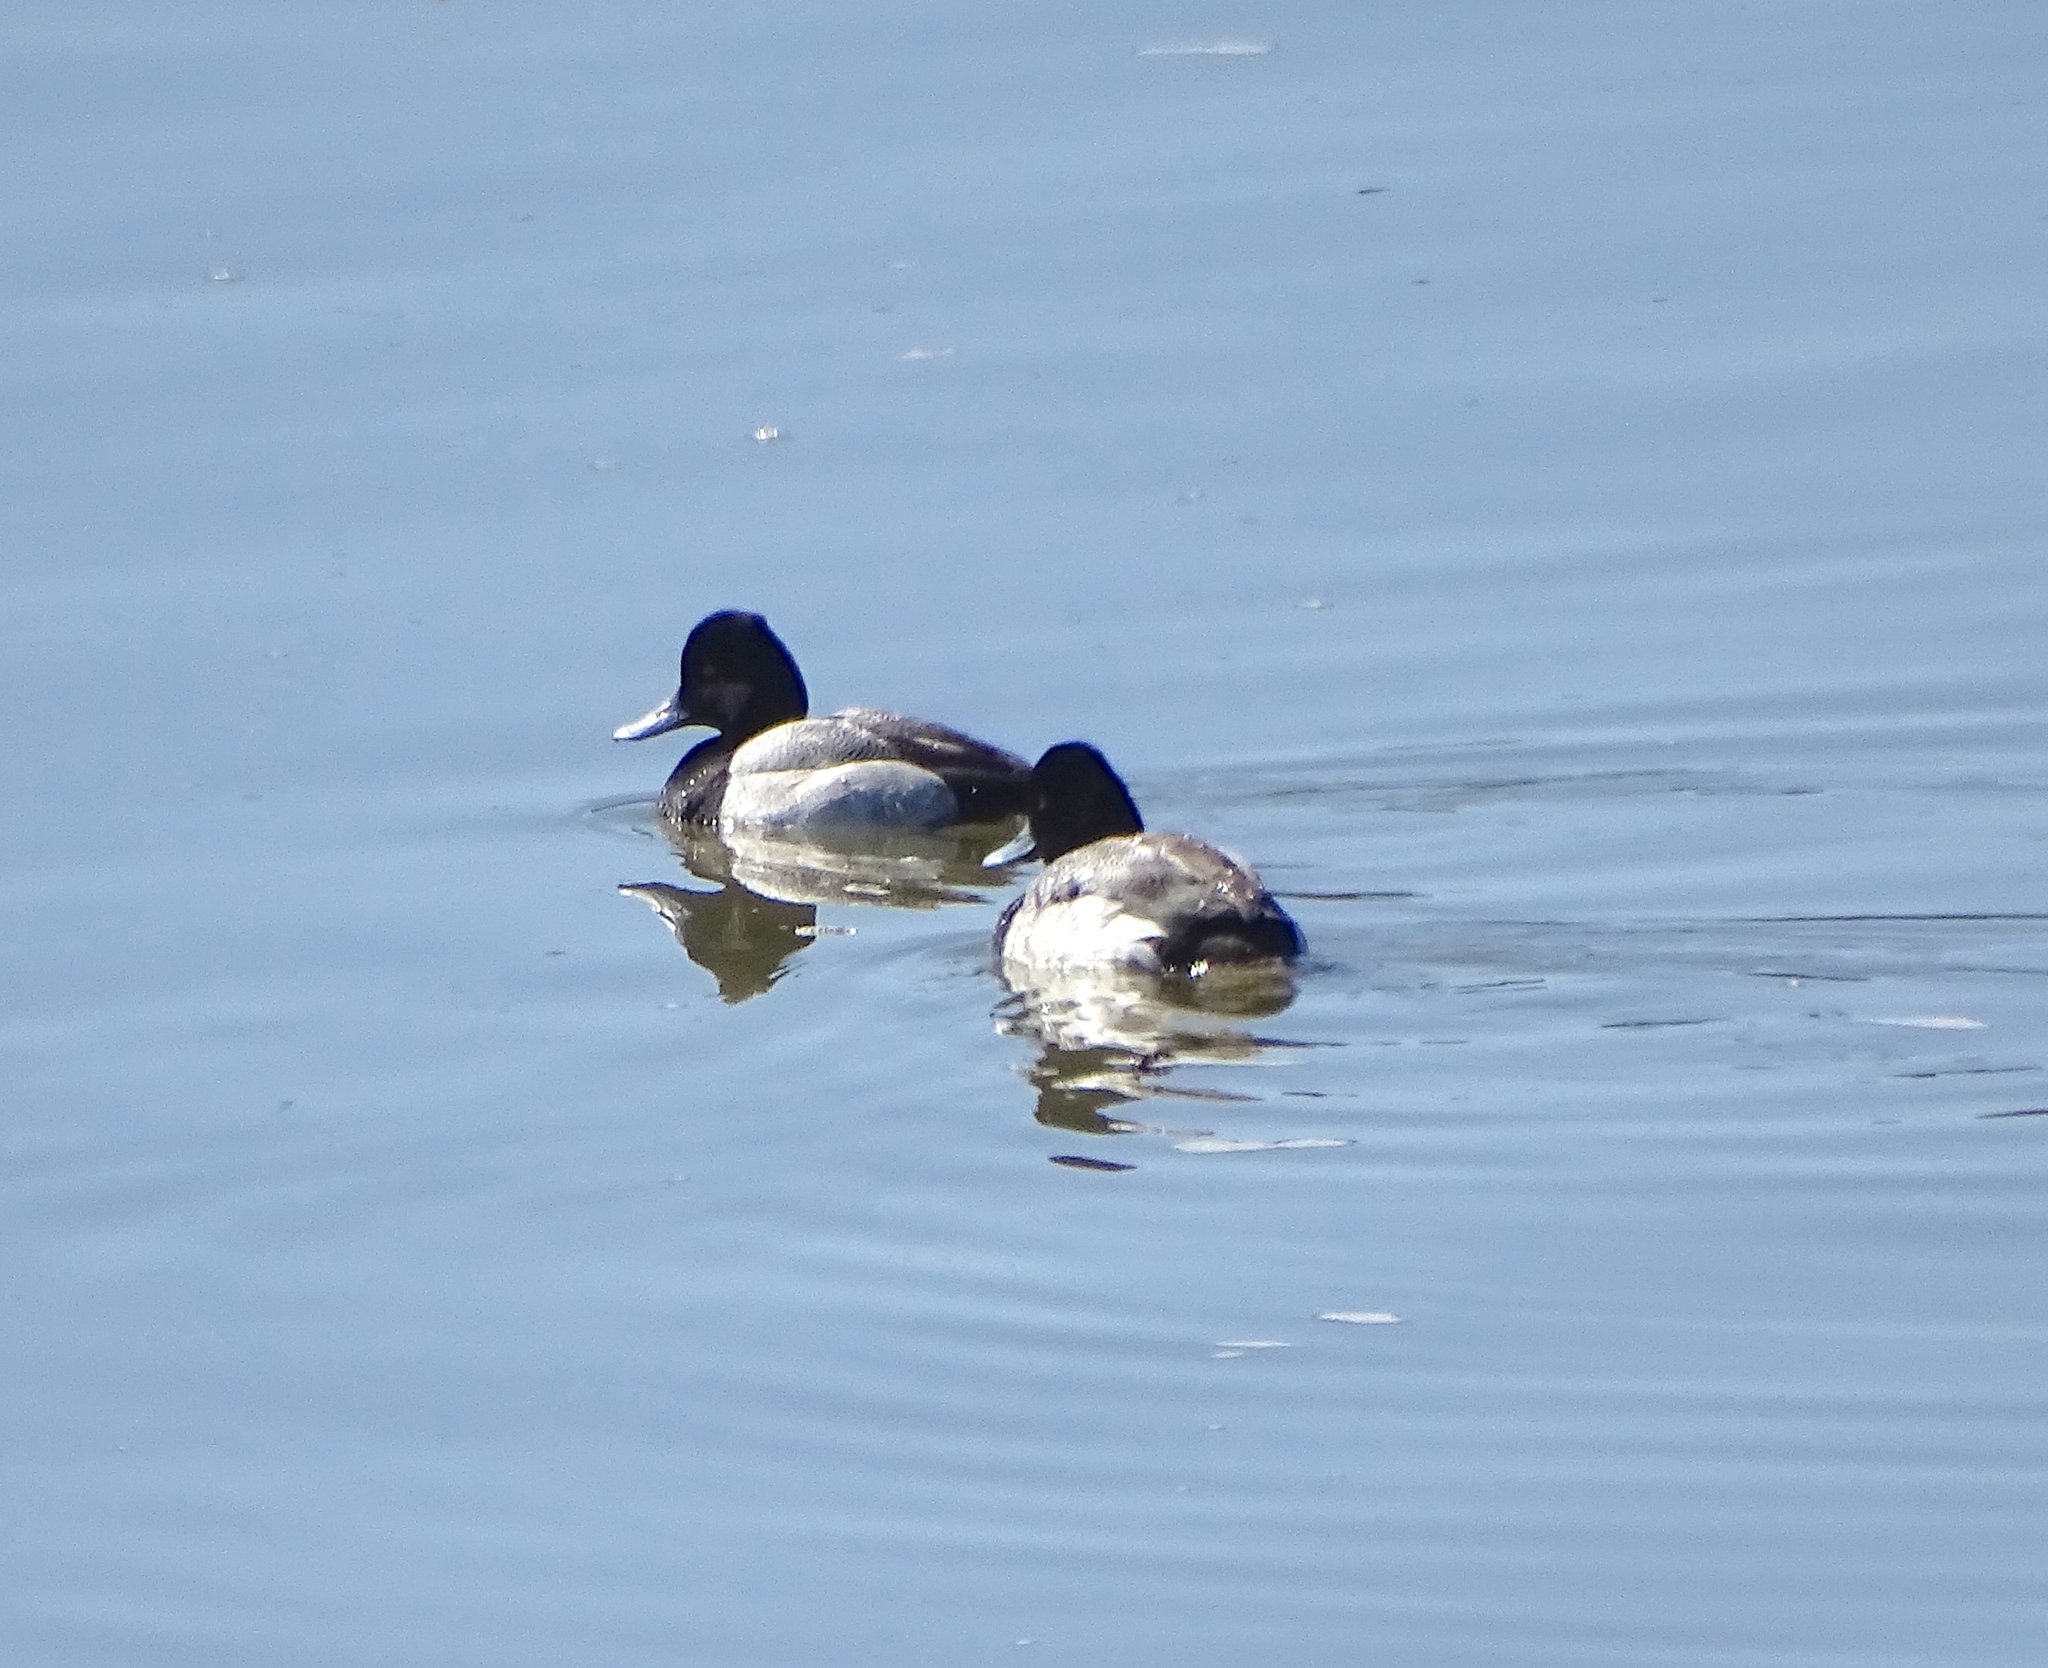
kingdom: Animalia
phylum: Chordata
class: Aves
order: Anseriformes
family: Anatidae
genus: Aythya
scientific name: Aythya affinis
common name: Lesser scaup
